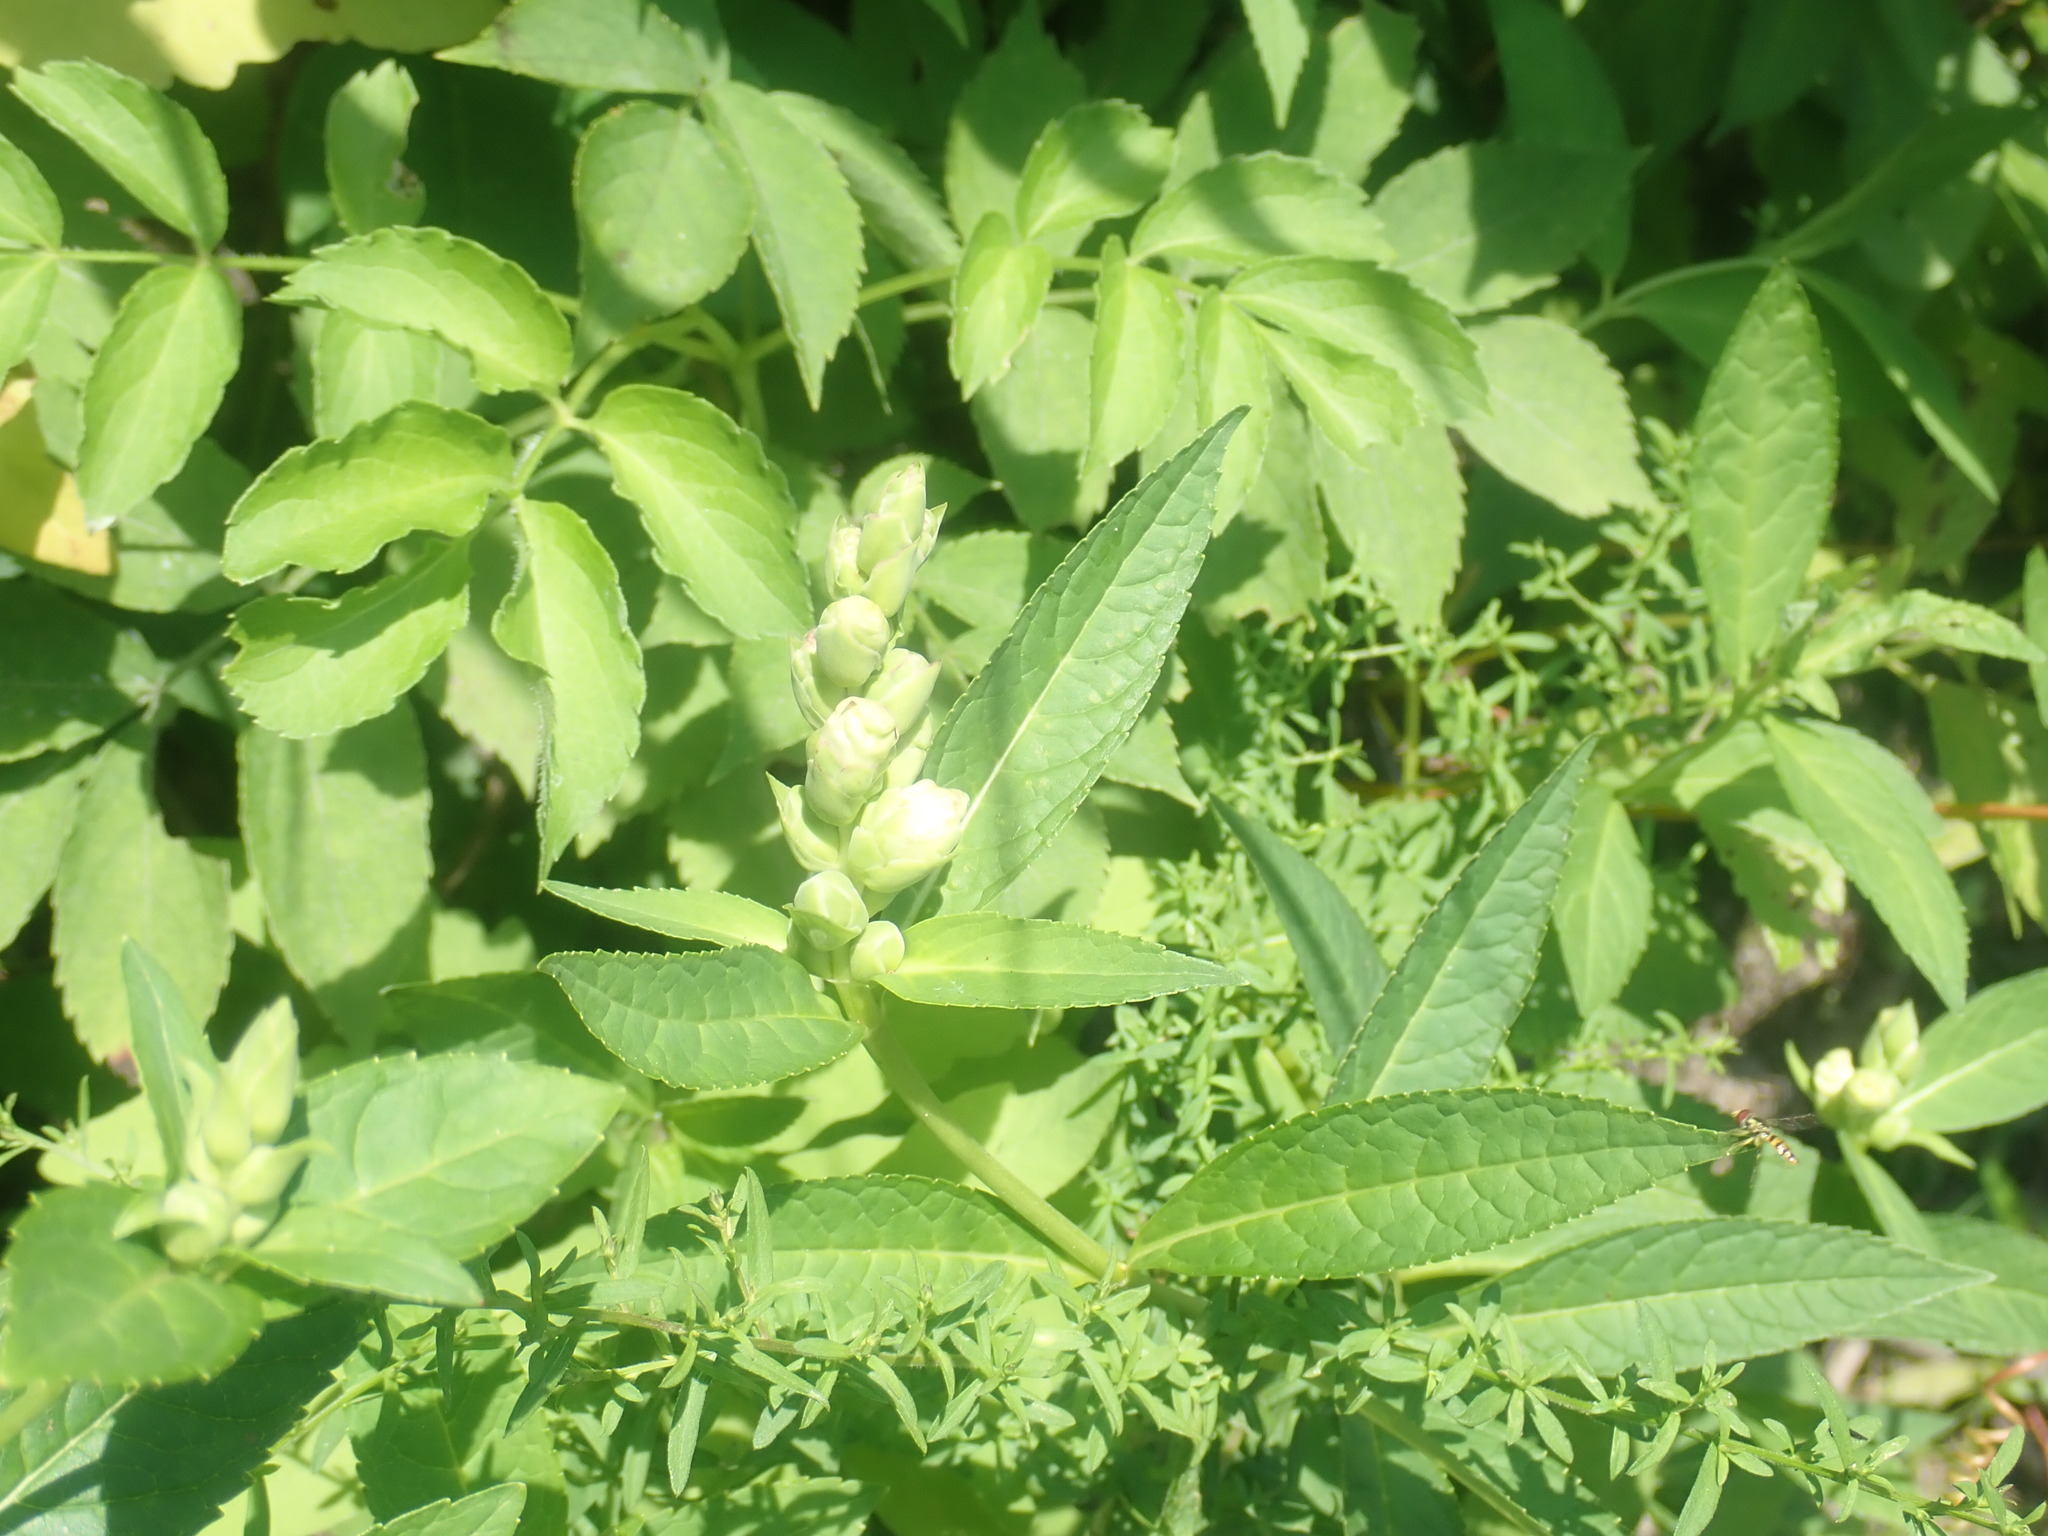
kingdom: Plantae
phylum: Tracheophyta
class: Magnoliopsida
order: Lamiales
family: Plantaginaceae
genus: Chelone
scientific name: Chelone glabra
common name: Snakehead
